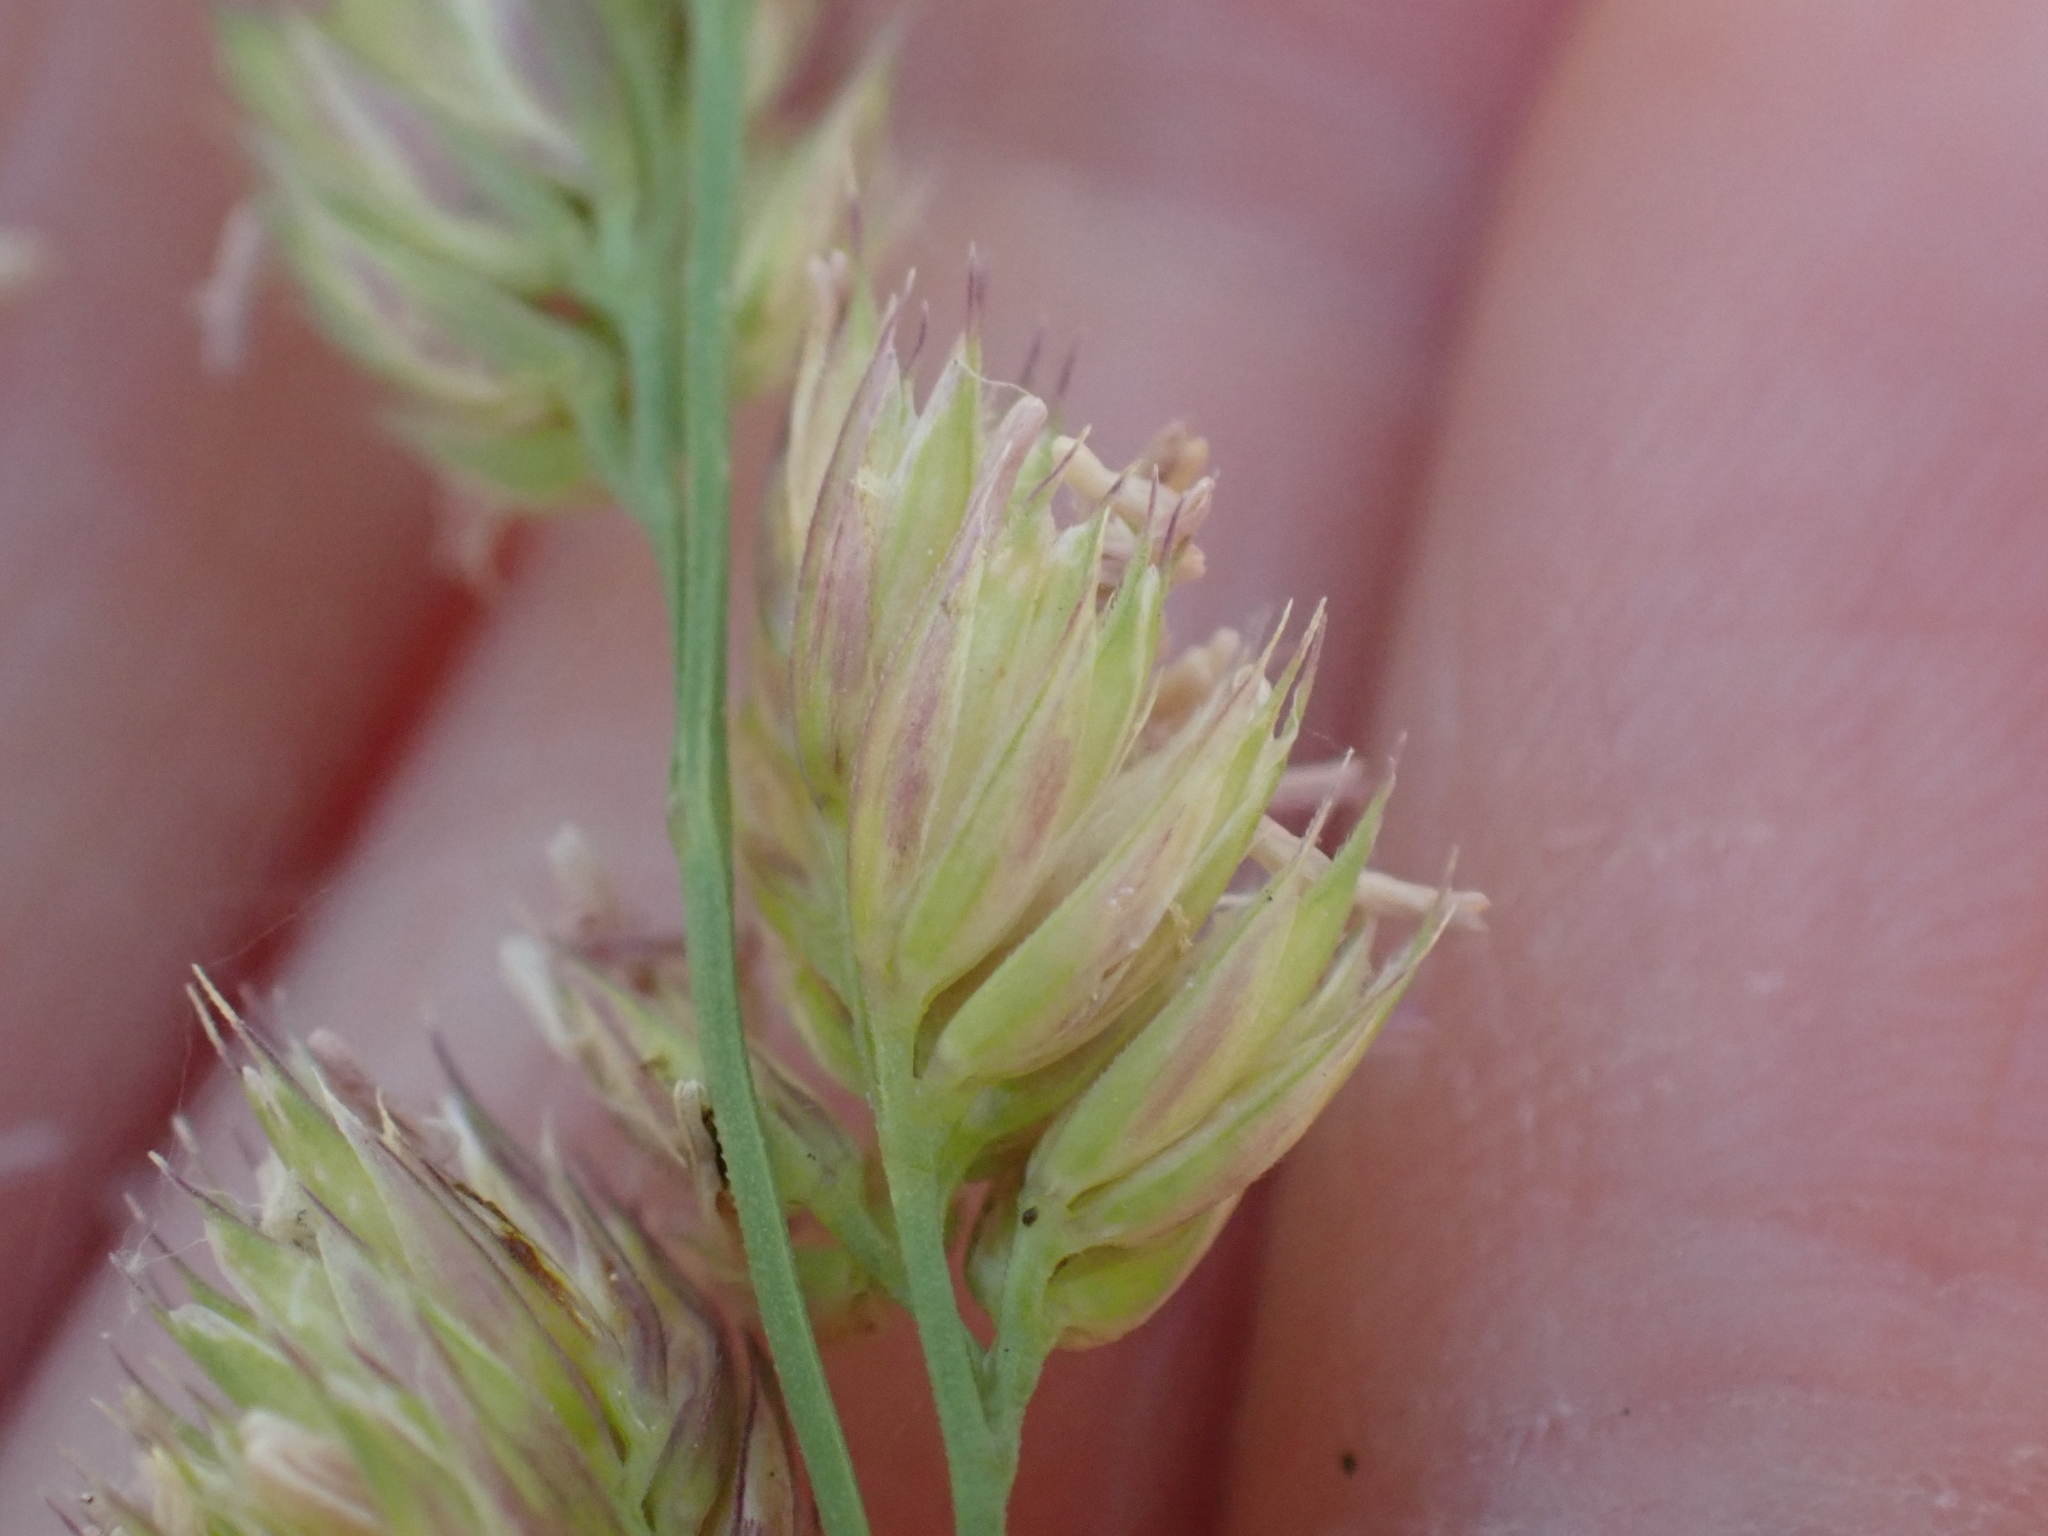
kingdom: Plantae
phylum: Tracheophyta
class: Liliopsida
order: Poales
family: Poaceae
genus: Dactylis
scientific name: Dactylis glomerata
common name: Orchardgrass
